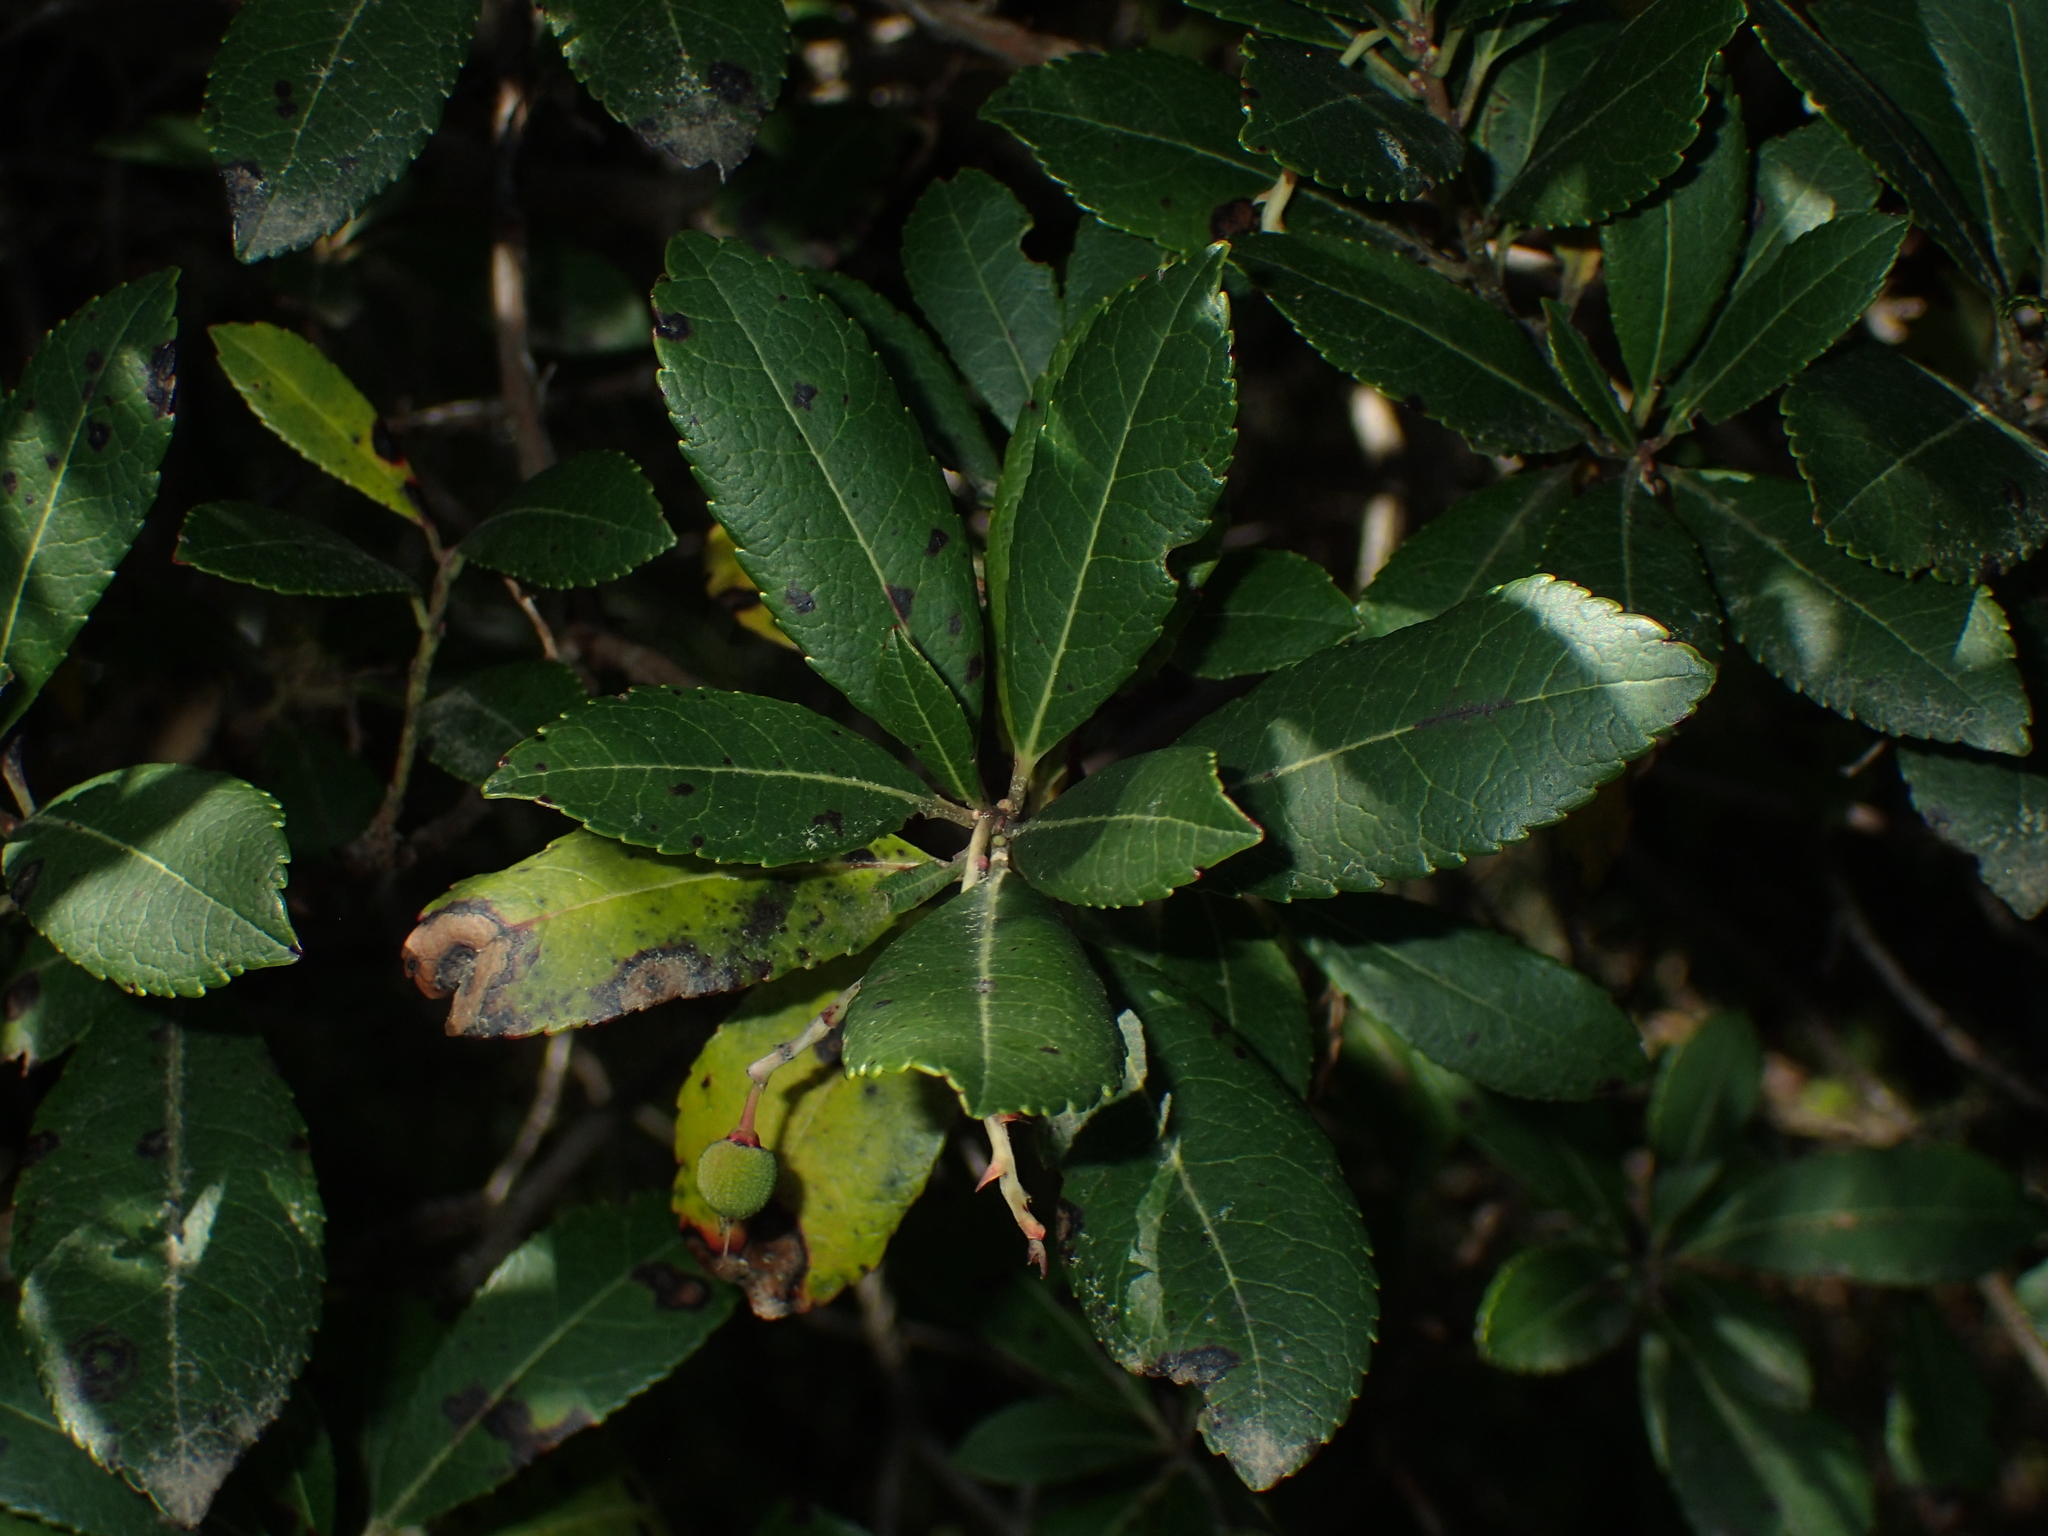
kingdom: Plantae
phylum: Tracheophyta
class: Magnoliopsida
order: Ericales
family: Ericaceae
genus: Arbutus
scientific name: Arbutus unedo
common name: Strawberry-tree
